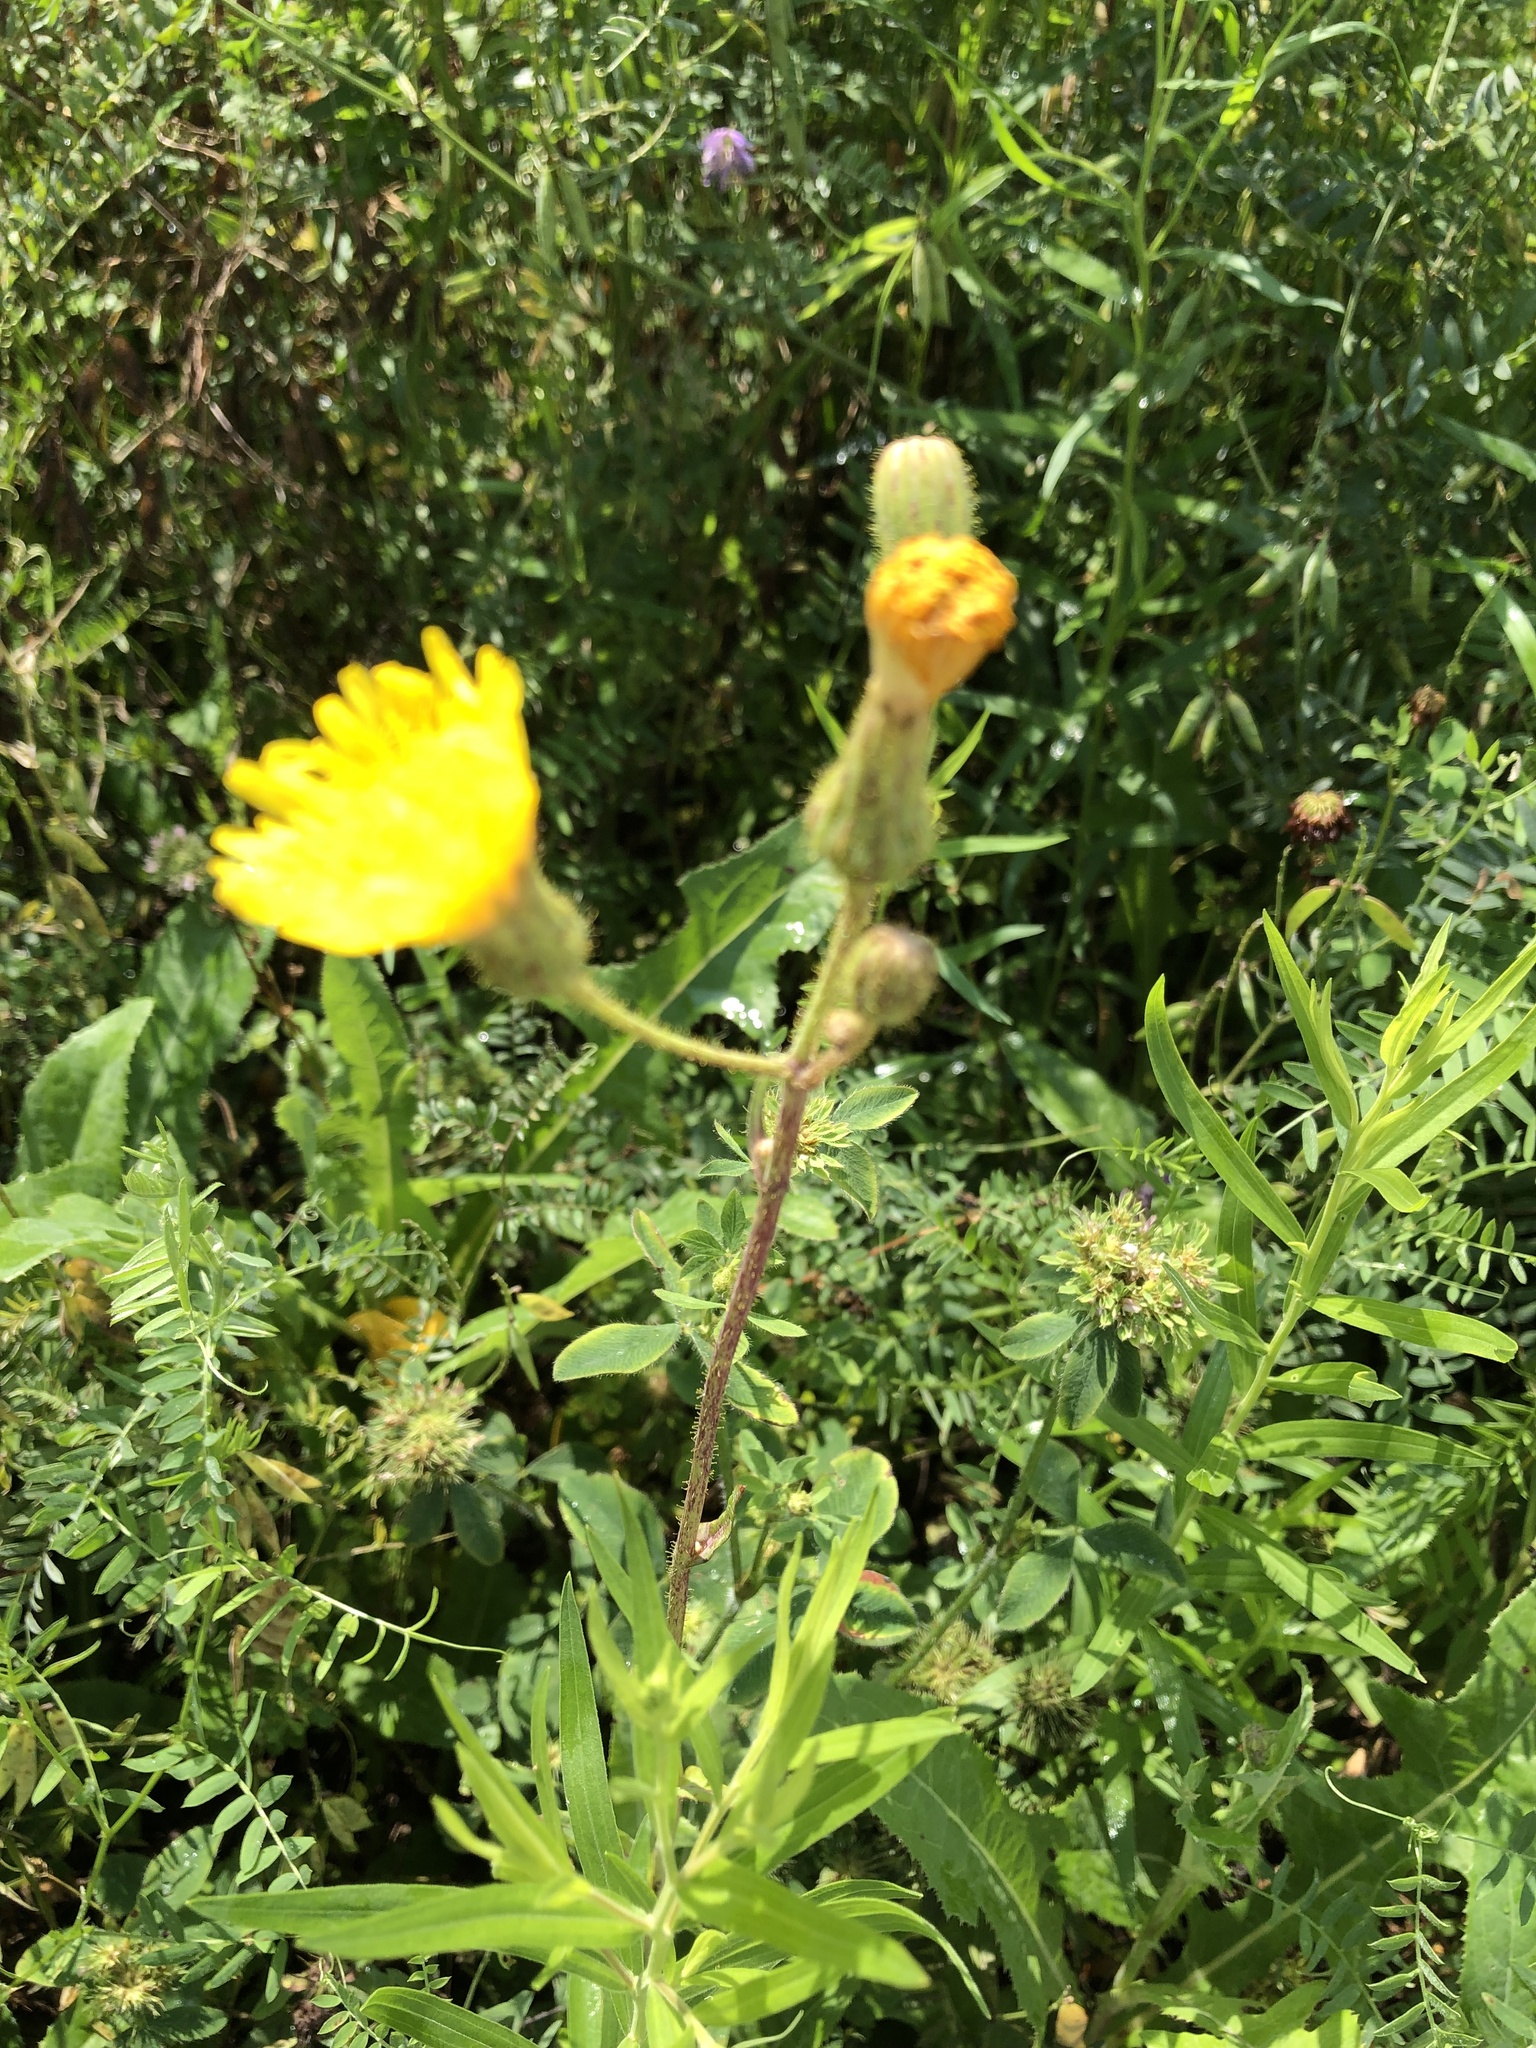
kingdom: Plantae
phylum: Tracheophyta
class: Magnoliopsida
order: Asterales
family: Asteraceae
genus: Sonchus
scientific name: Sonchus arvensis
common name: Perennial sow-thistle
